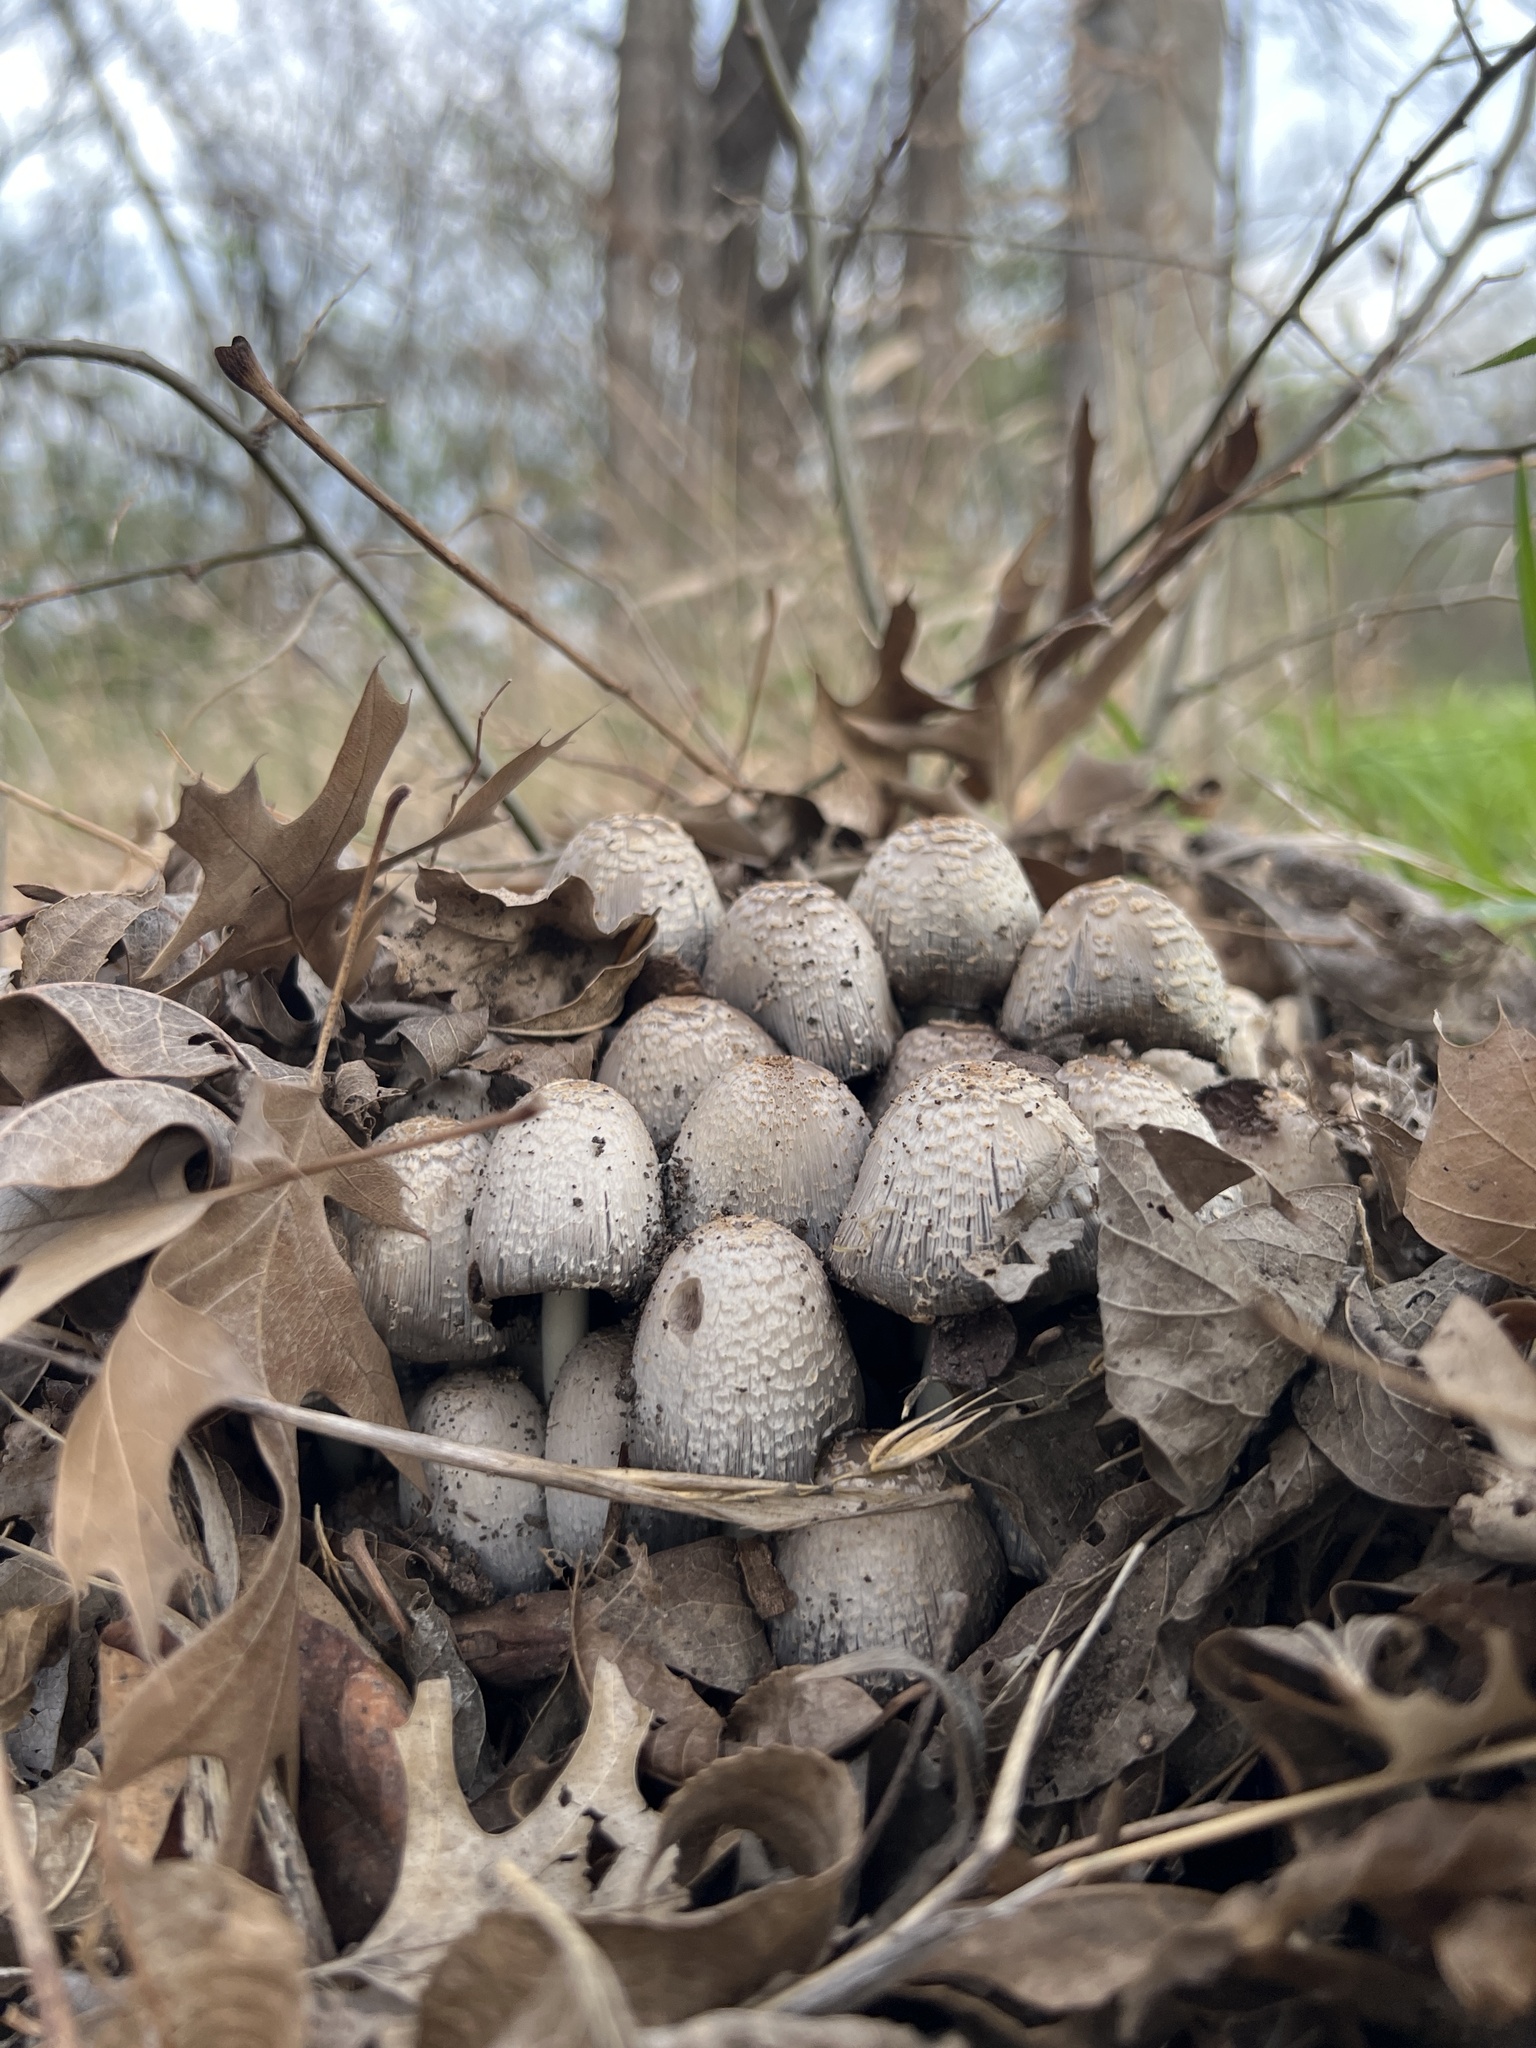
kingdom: Fungi
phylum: Basidiomycota
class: Agaricomycetes
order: Agaricales
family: Psathyrellaceae
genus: Coprinopsis
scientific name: Coprinopsis variegata
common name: Scaly ink cap
